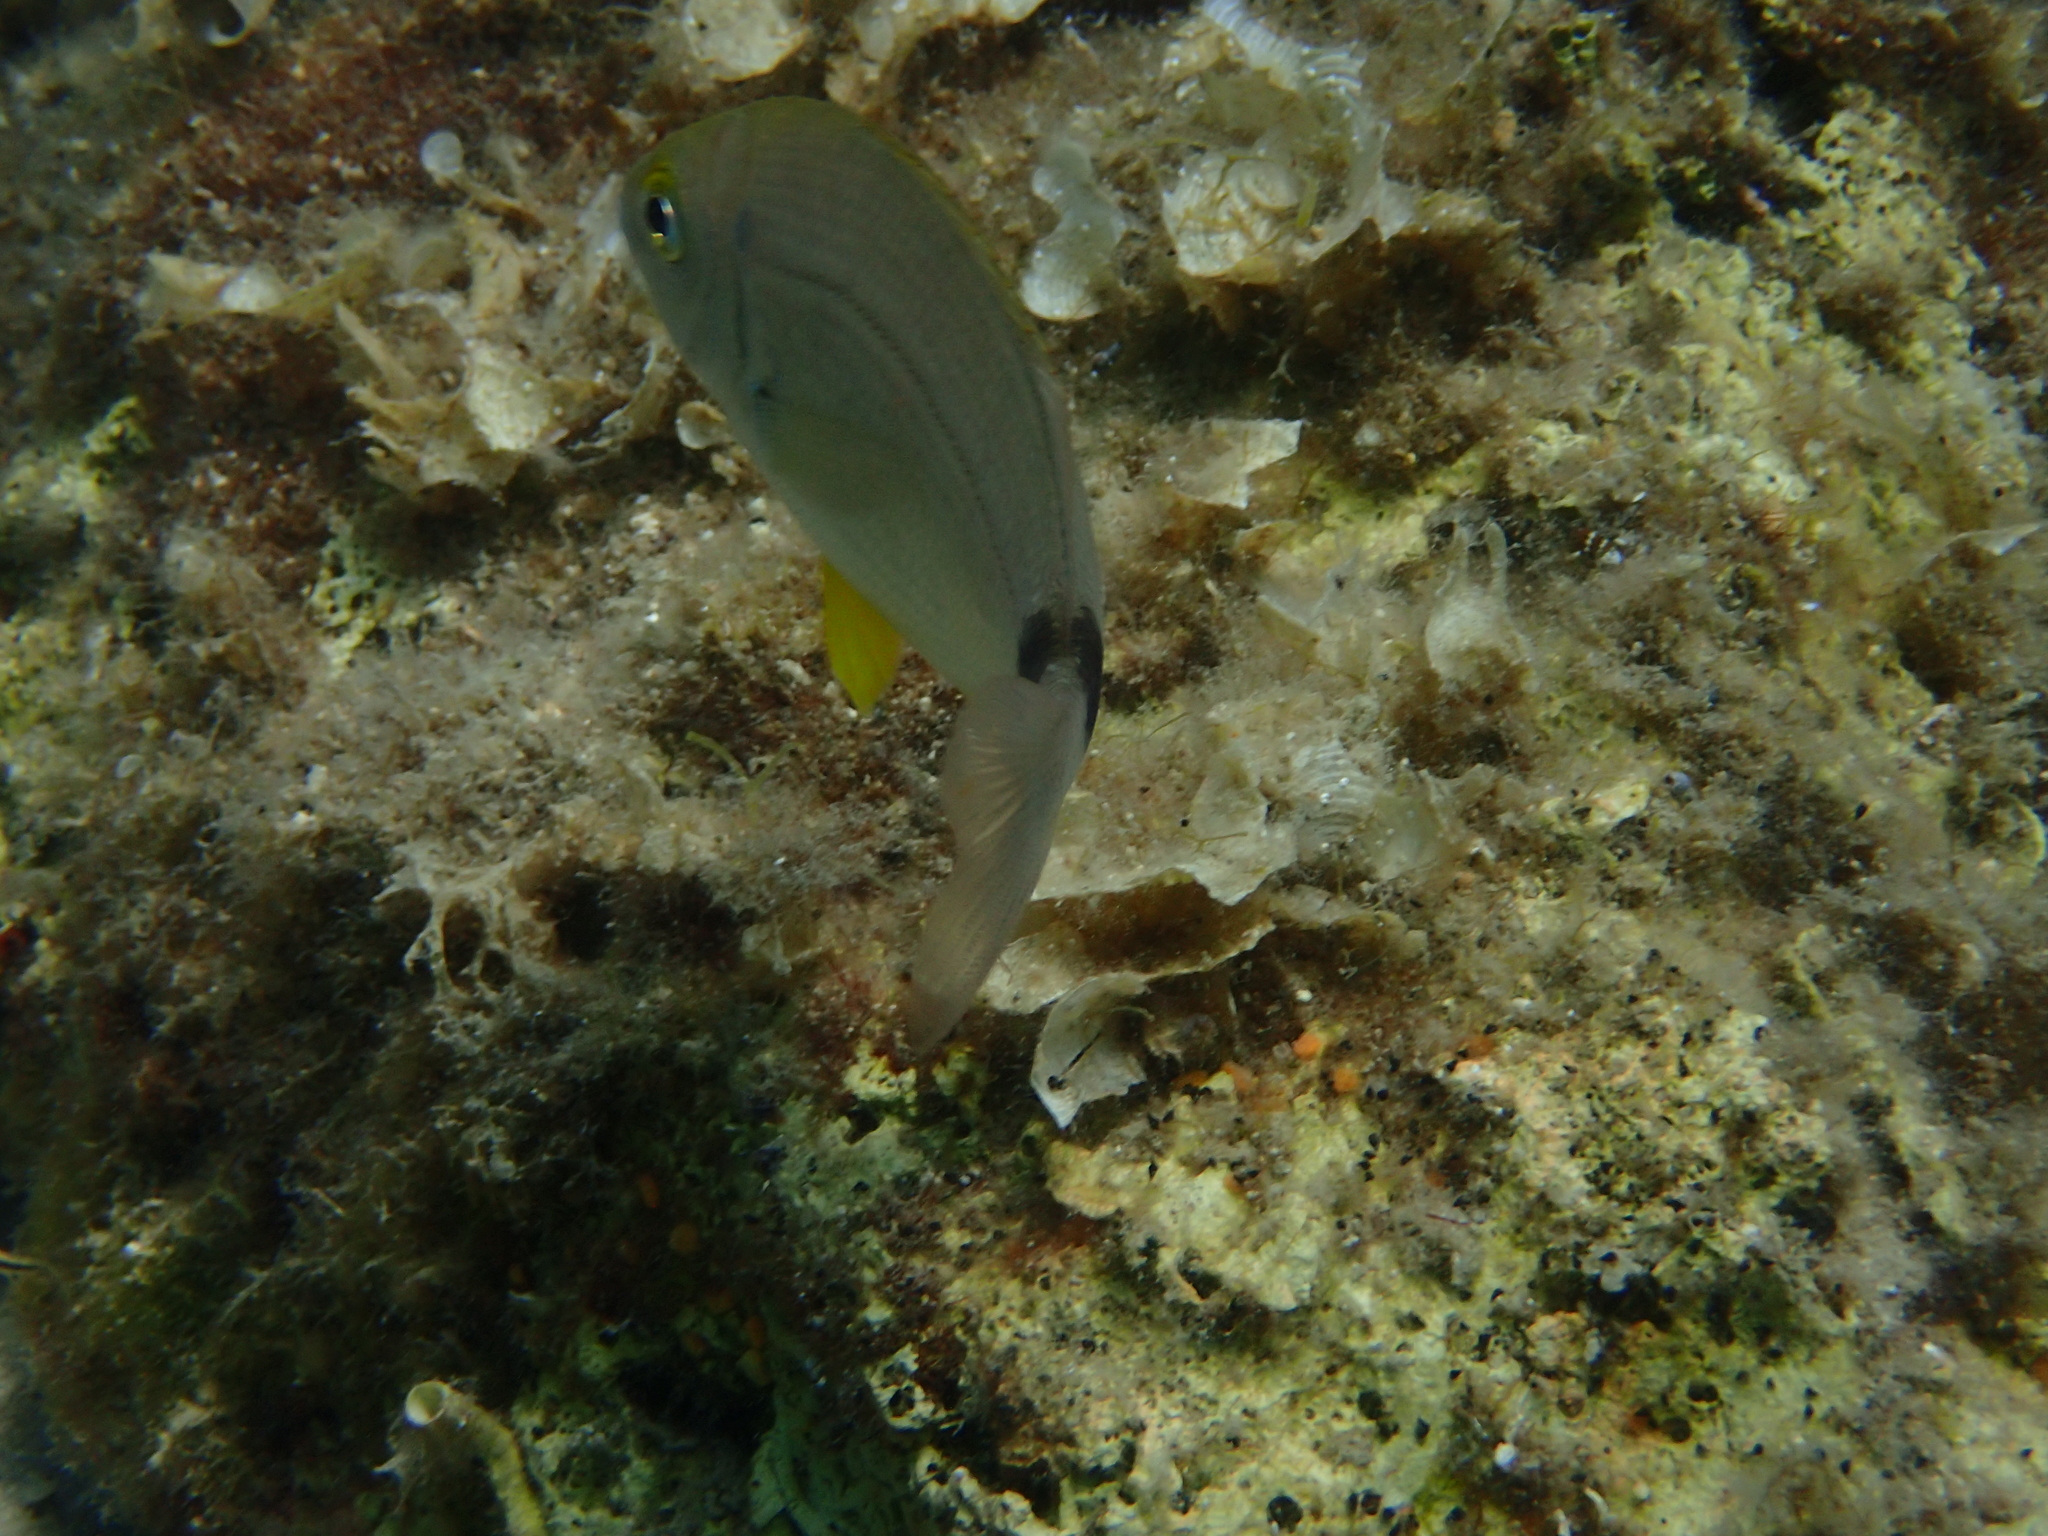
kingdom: Animalia
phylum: Chordata
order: Perciformes
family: Sparidae
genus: Diplodus
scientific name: Diplodus annularis
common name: Annular seabream
